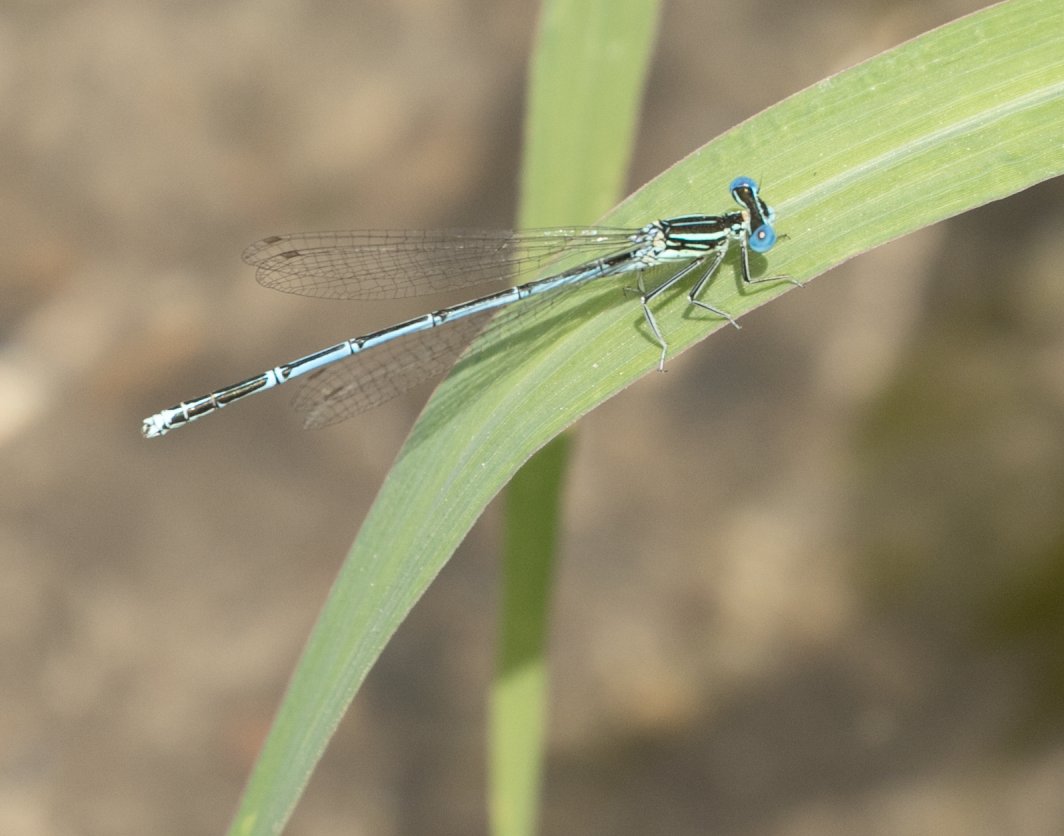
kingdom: Animalia
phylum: Arthropoda
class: Insecta
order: Odonata
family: Platycnemididae
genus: Platycnemis
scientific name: Platycnemis pennipes
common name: White-legged damselfly
